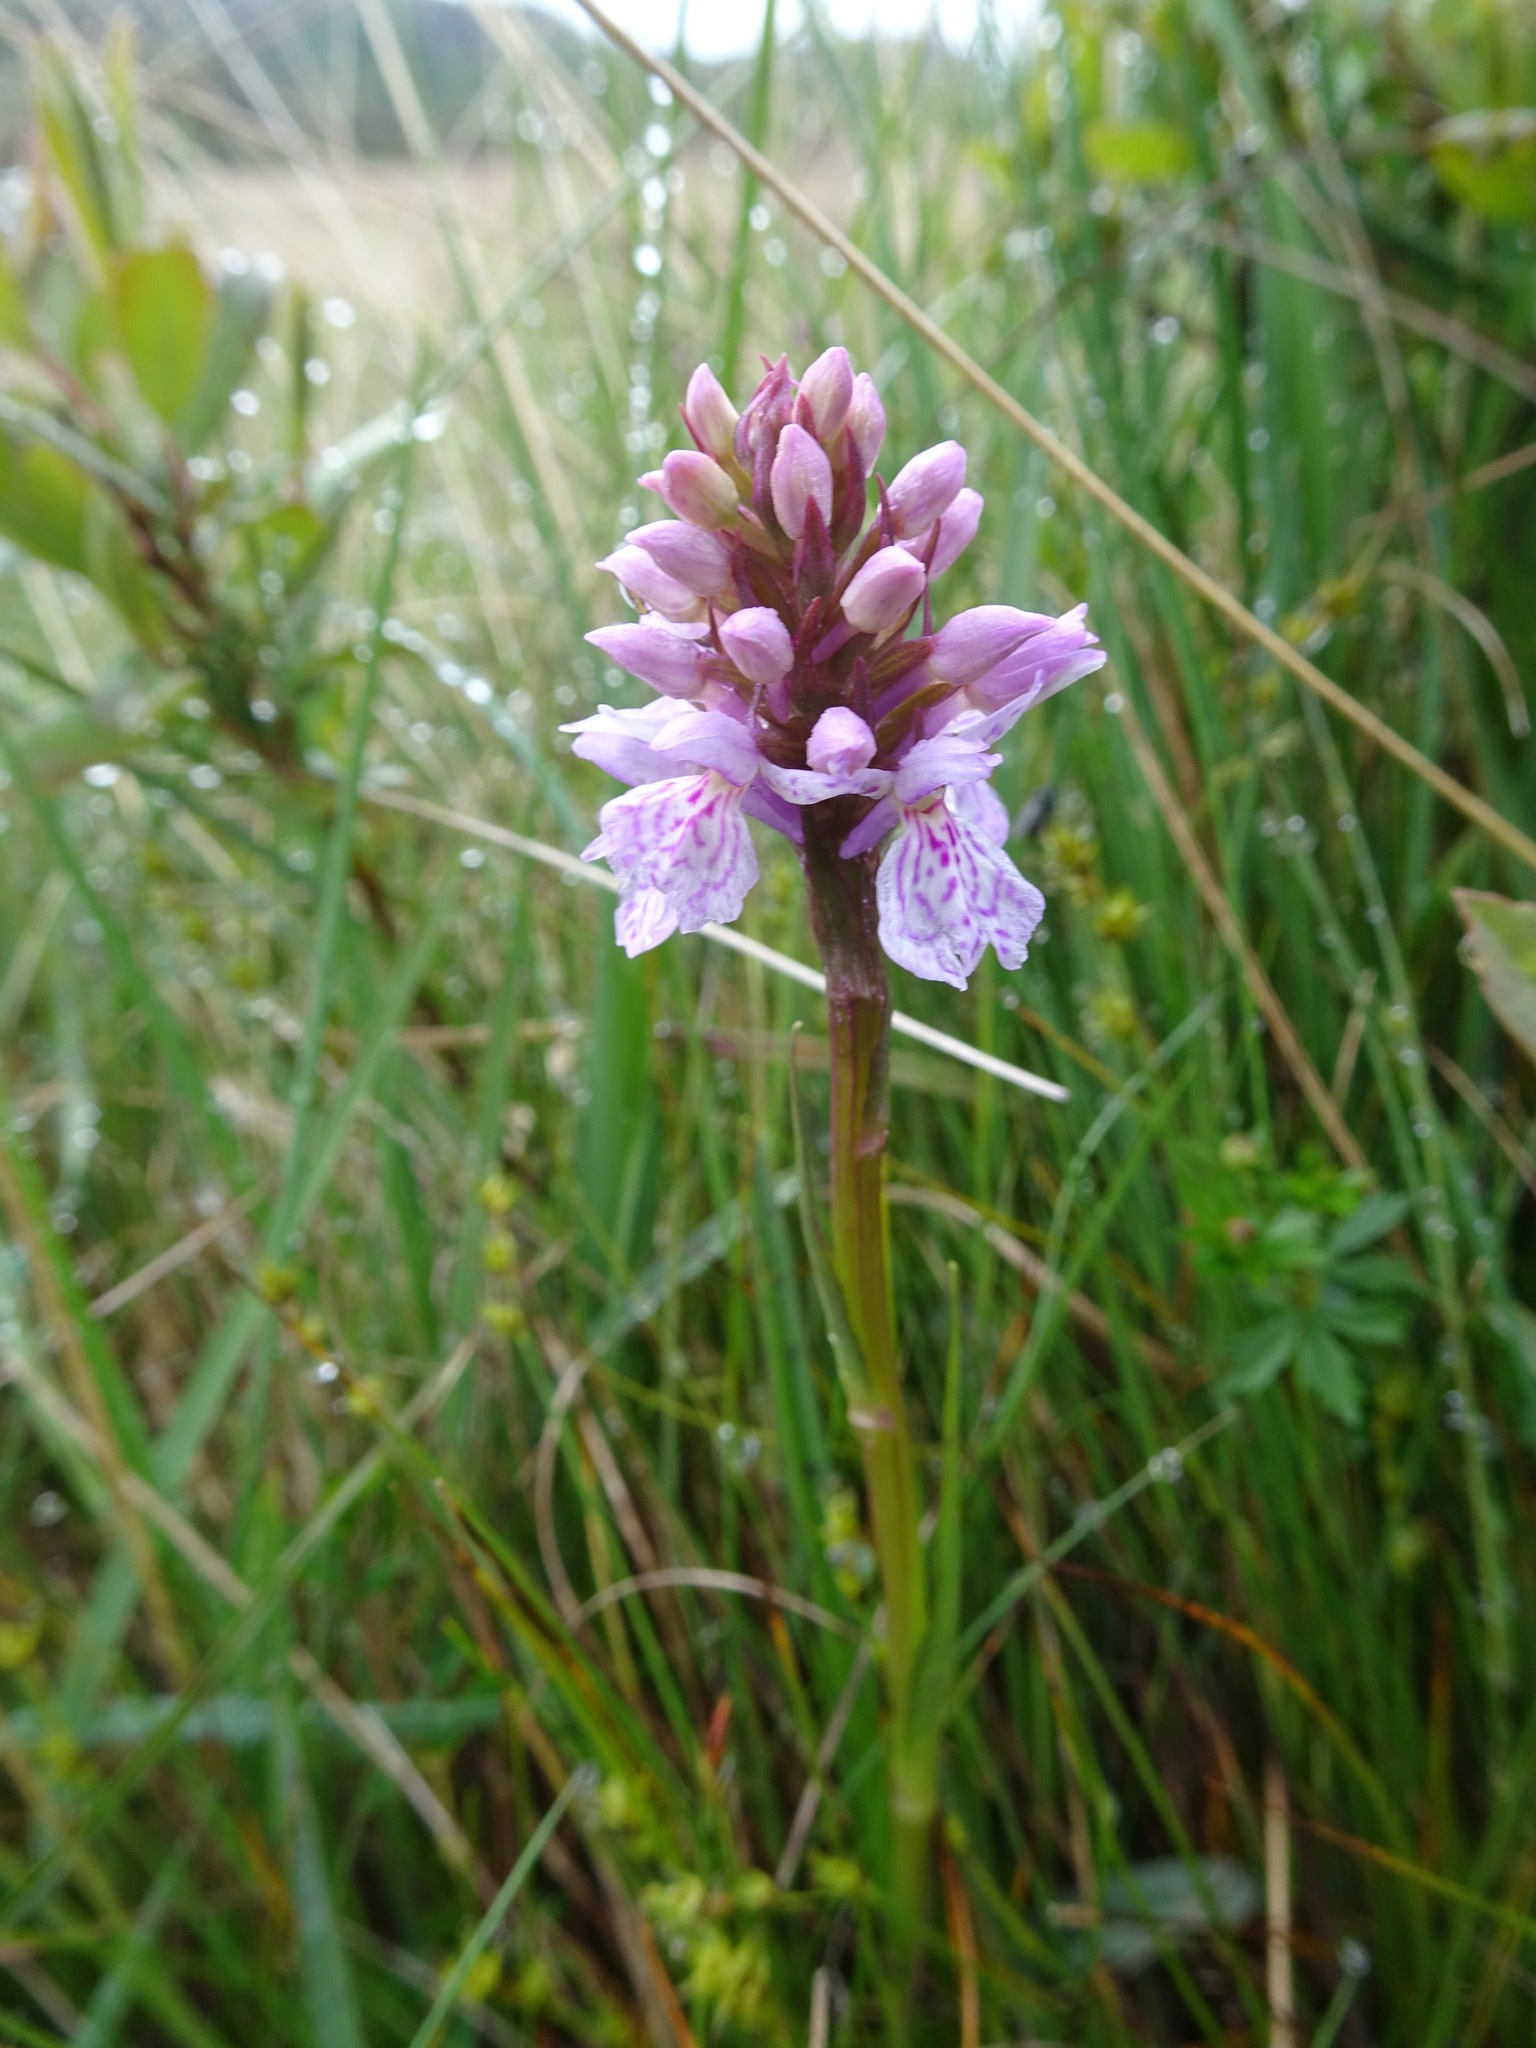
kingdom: Plantae
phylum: Tracheophyta
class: Liliopsida
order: Asparagales
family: Orchidaceae
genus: Dactylorhiza
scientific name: Dactylorhiza maculata
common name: Heath spotted-orchid
